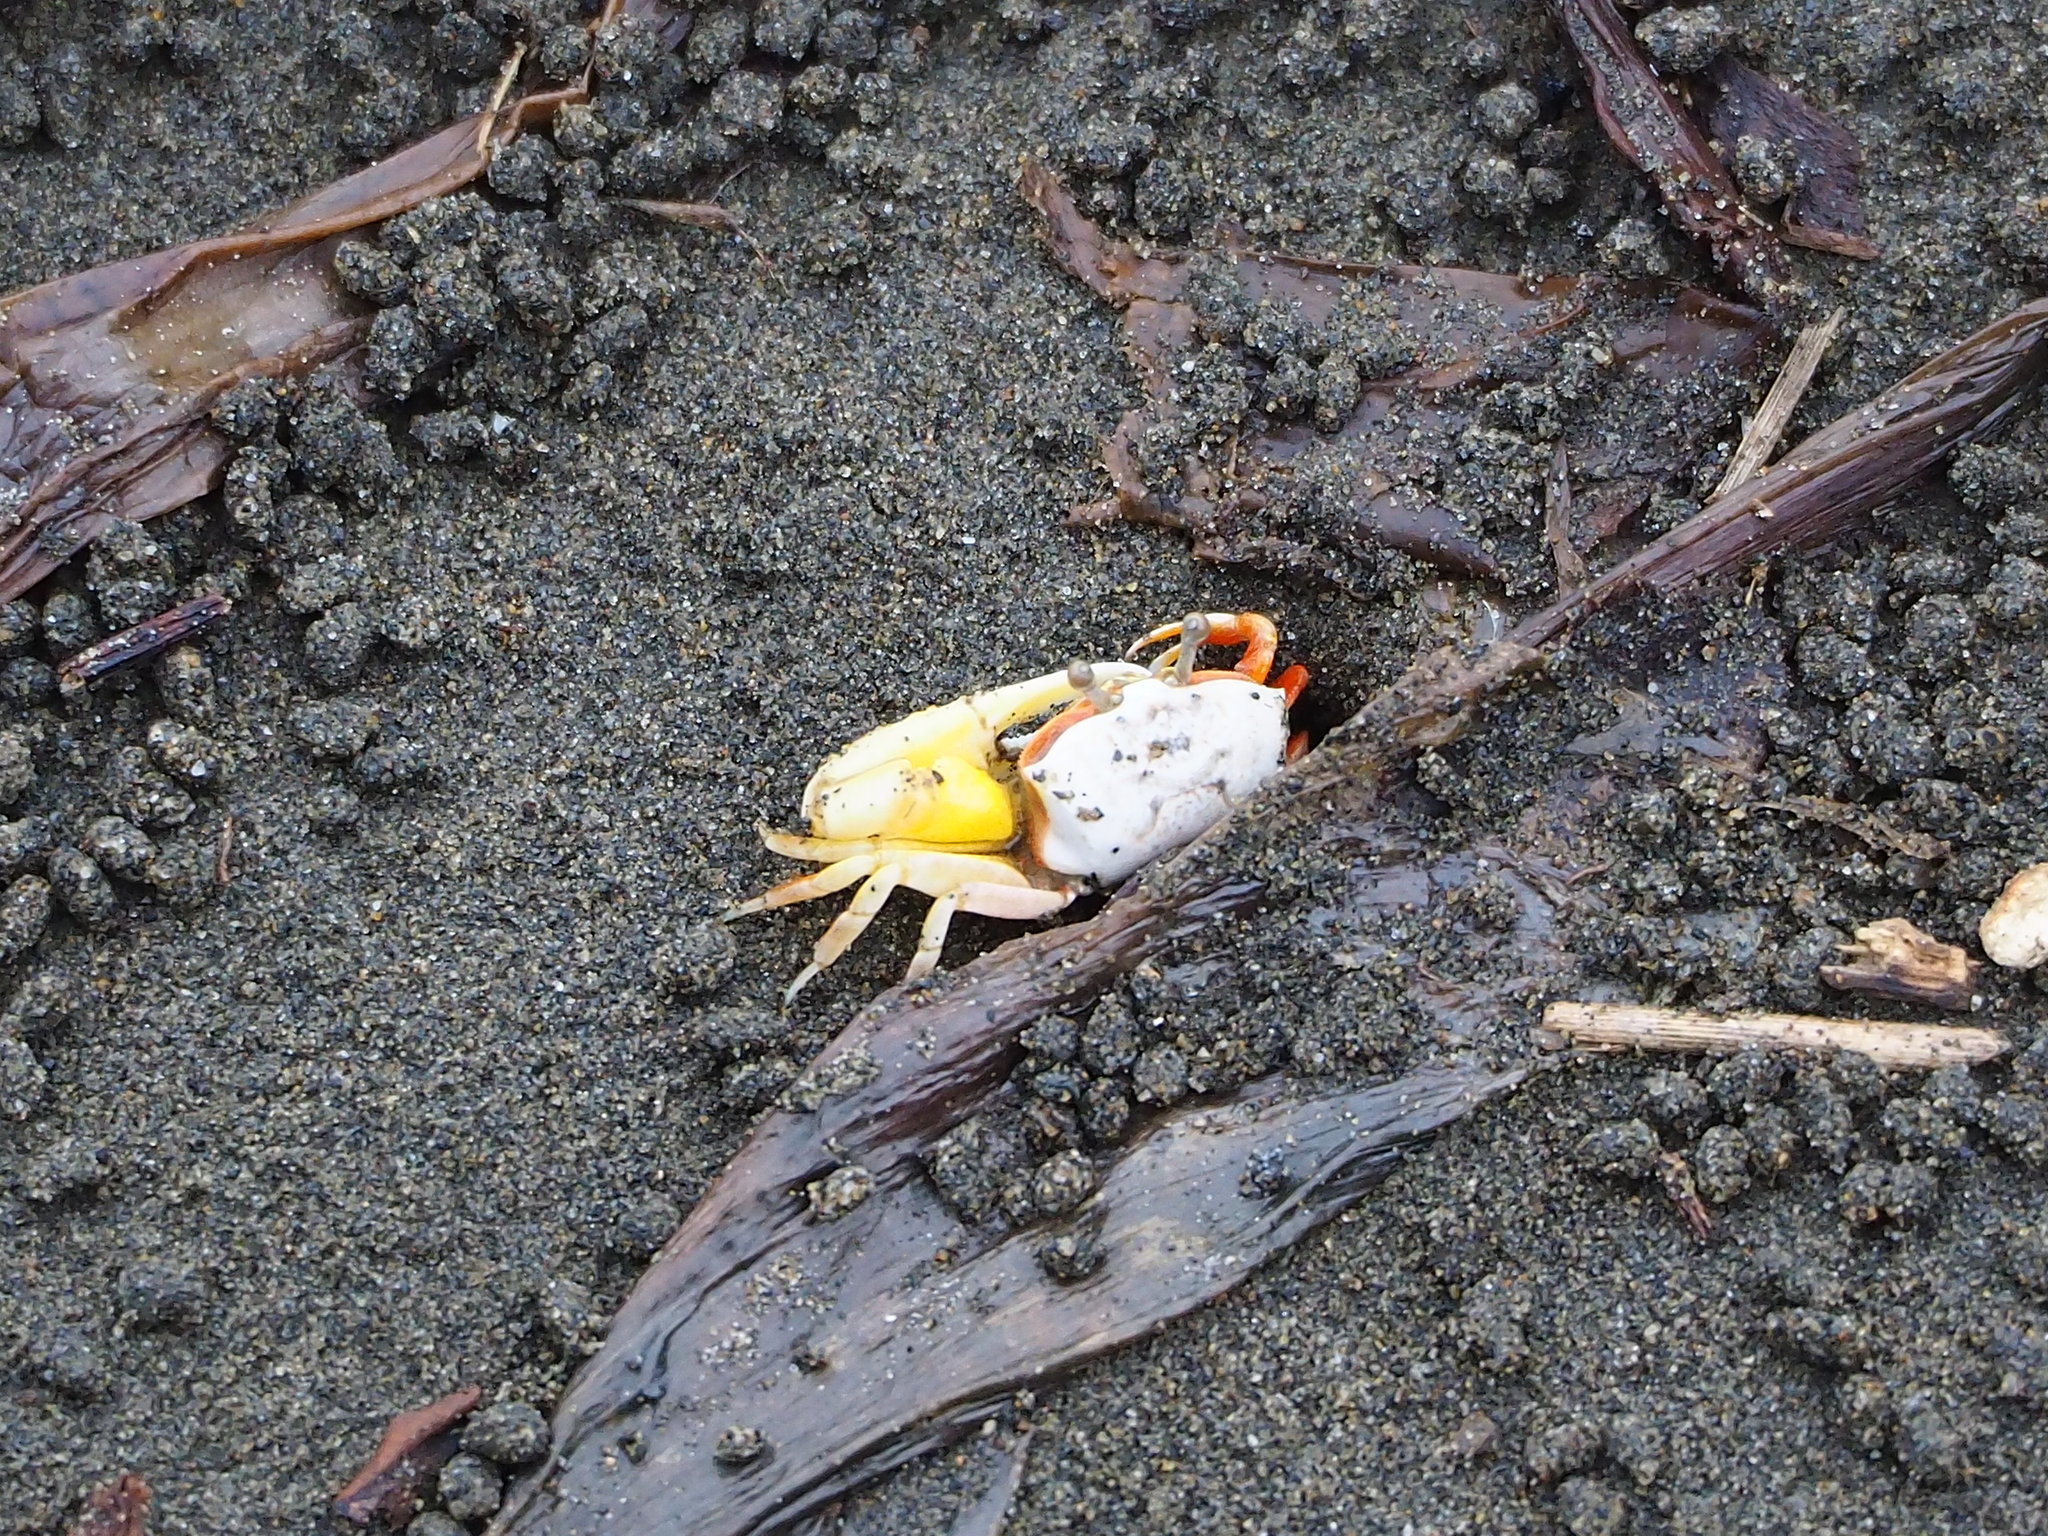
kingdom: Animalia
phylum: Arthropoda
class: Malacostraca
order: Decapoda
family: Ocypodidae
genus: Austruca
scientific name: Austruca lactea
